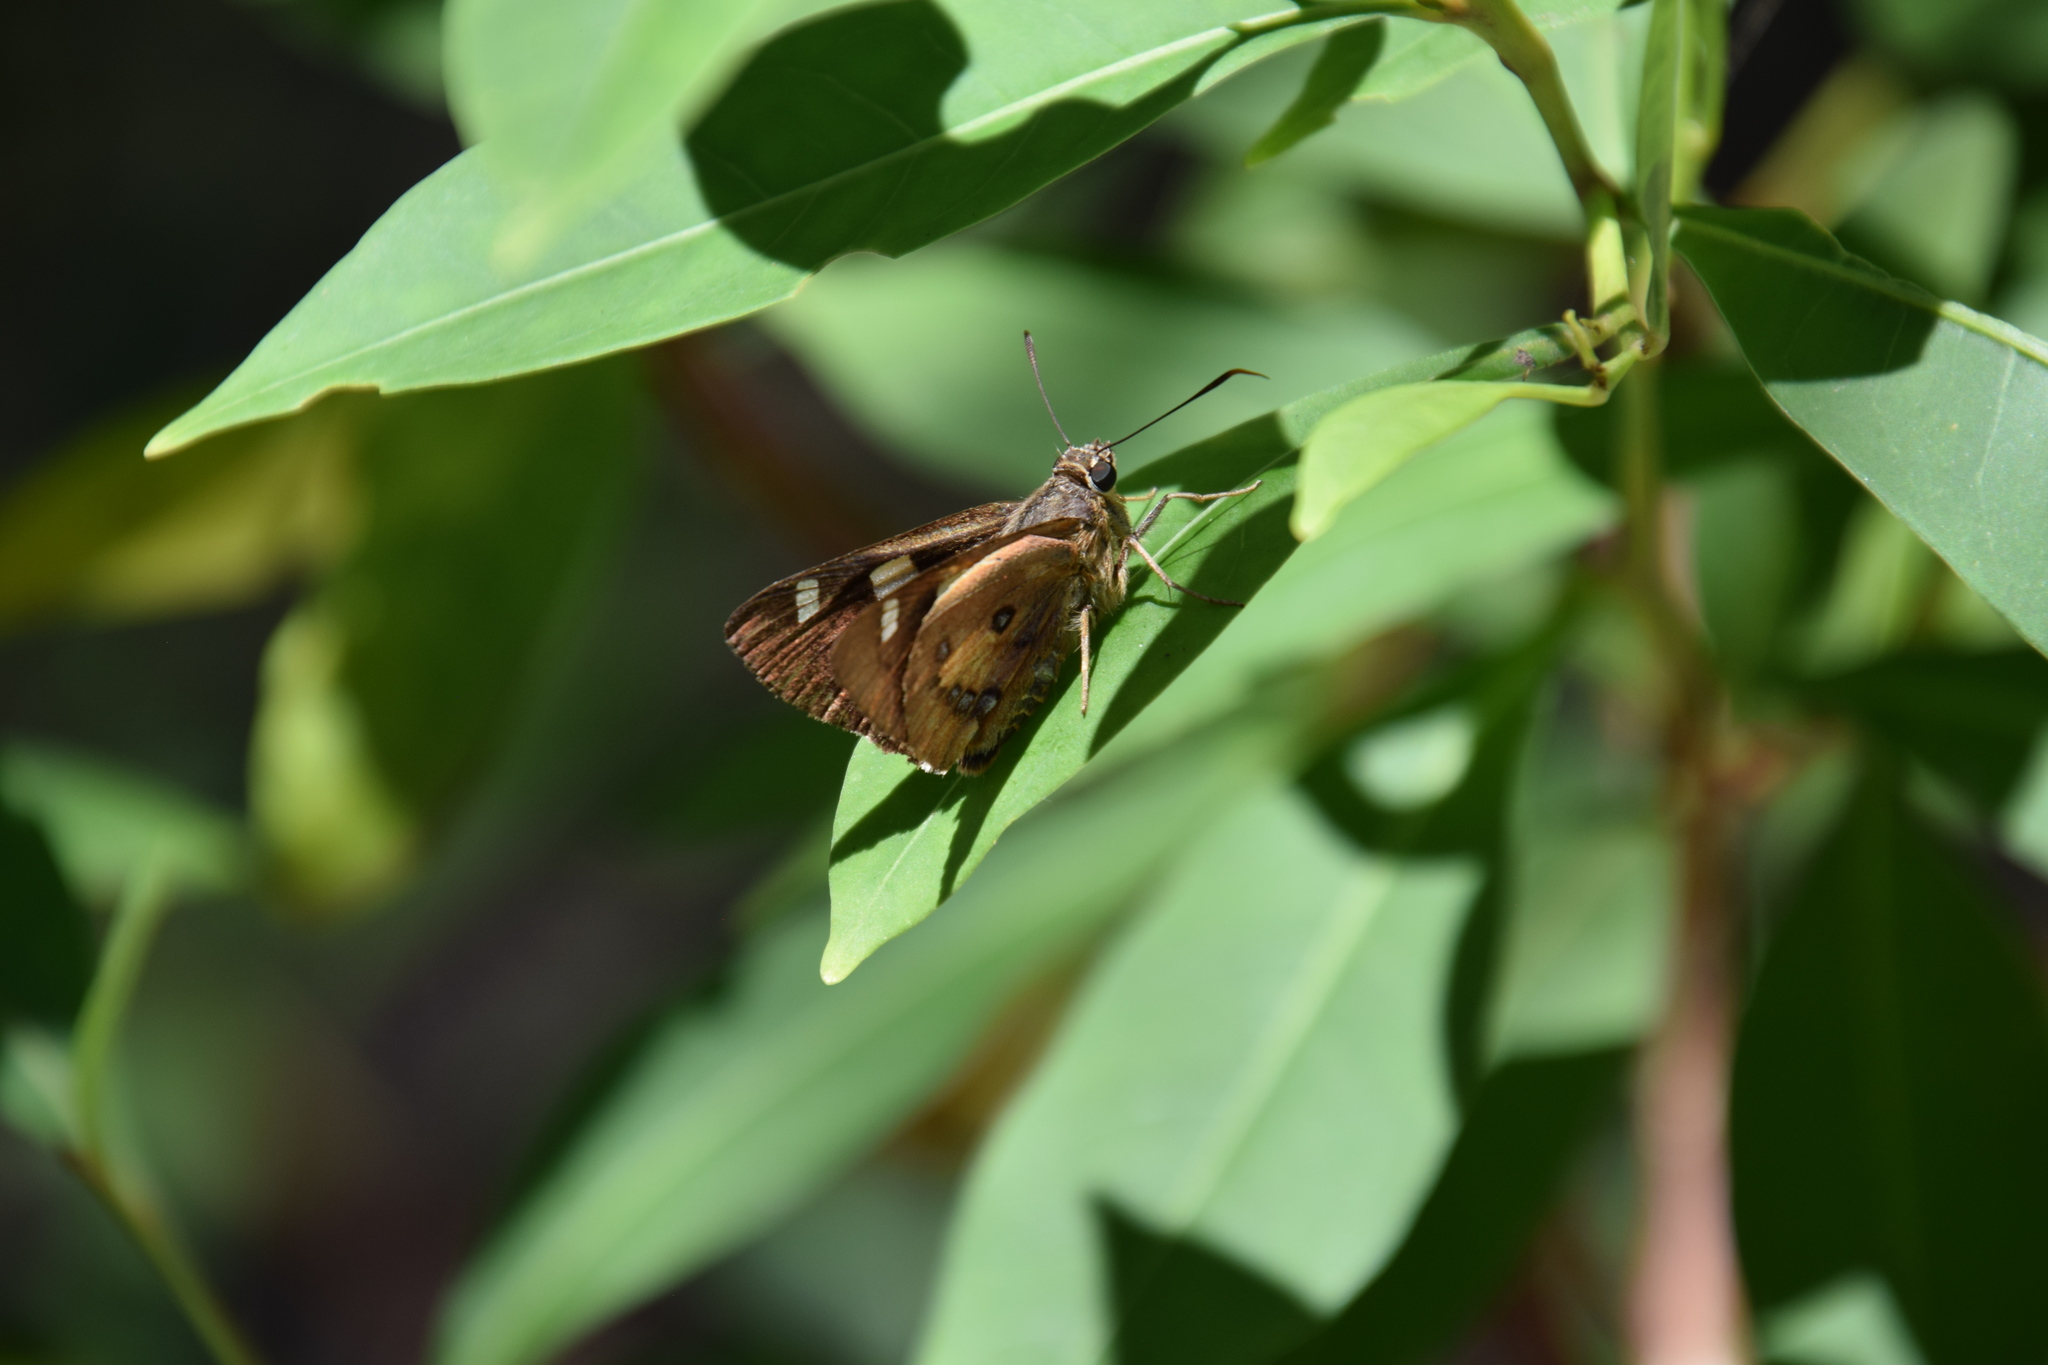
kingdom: Animalia
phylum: Arthropoda
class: Insecta
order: Lepidoptera
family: Hesperiidae
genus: Trapezites
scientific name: Trapezites symmomus
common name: Splendid ochre
